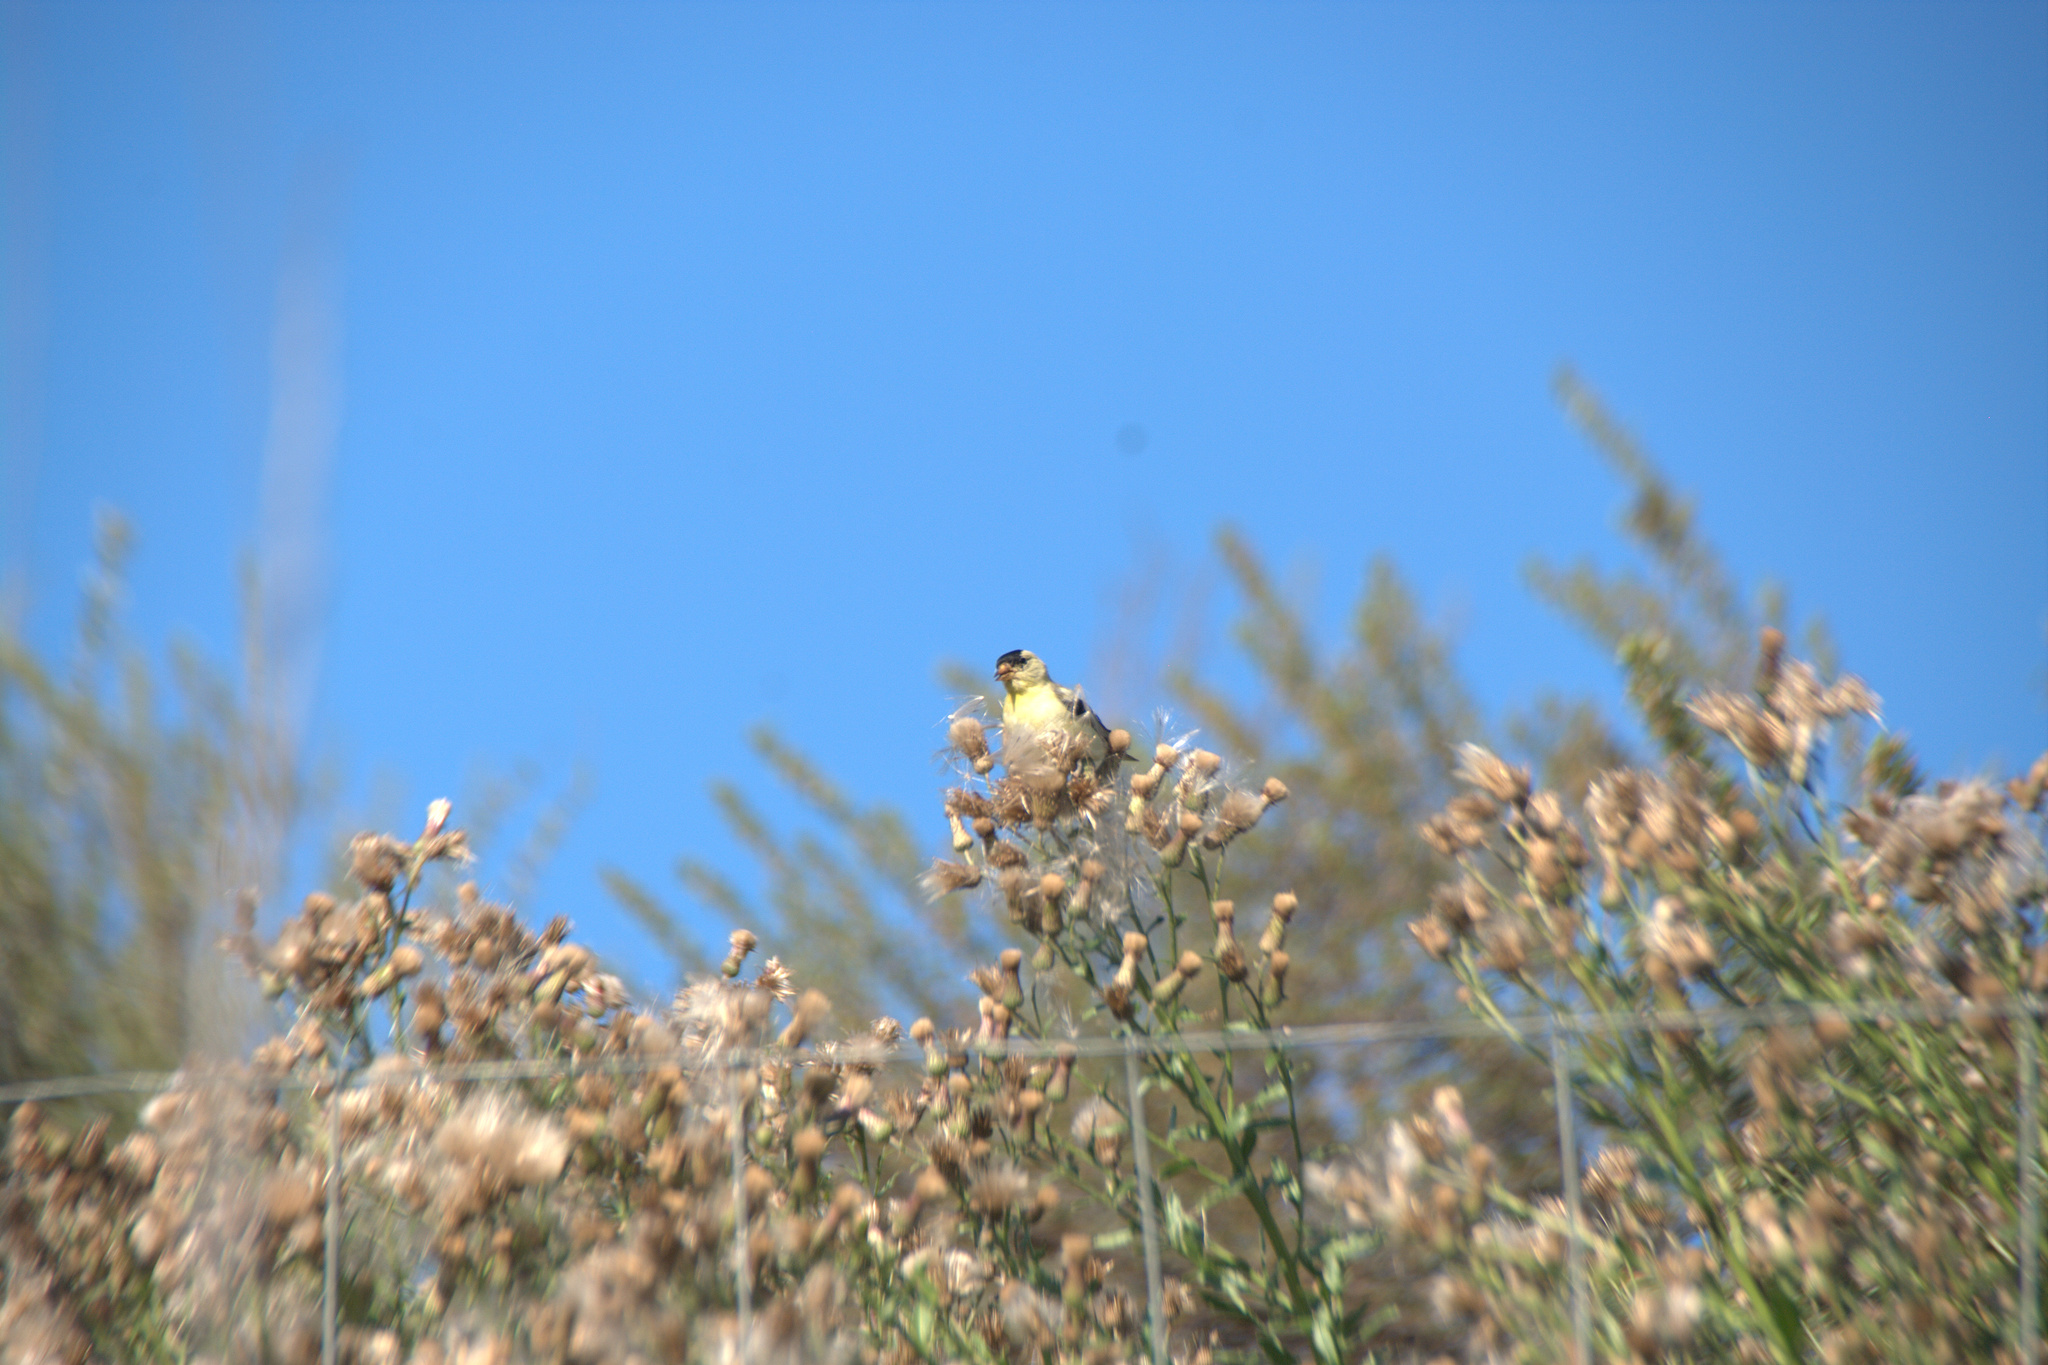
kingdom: Animalia
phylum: Chordata
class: Aves
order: Passeriformes
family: Fringillidae
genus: Spinus
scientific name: Spinus tristis
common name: American goldfinch
